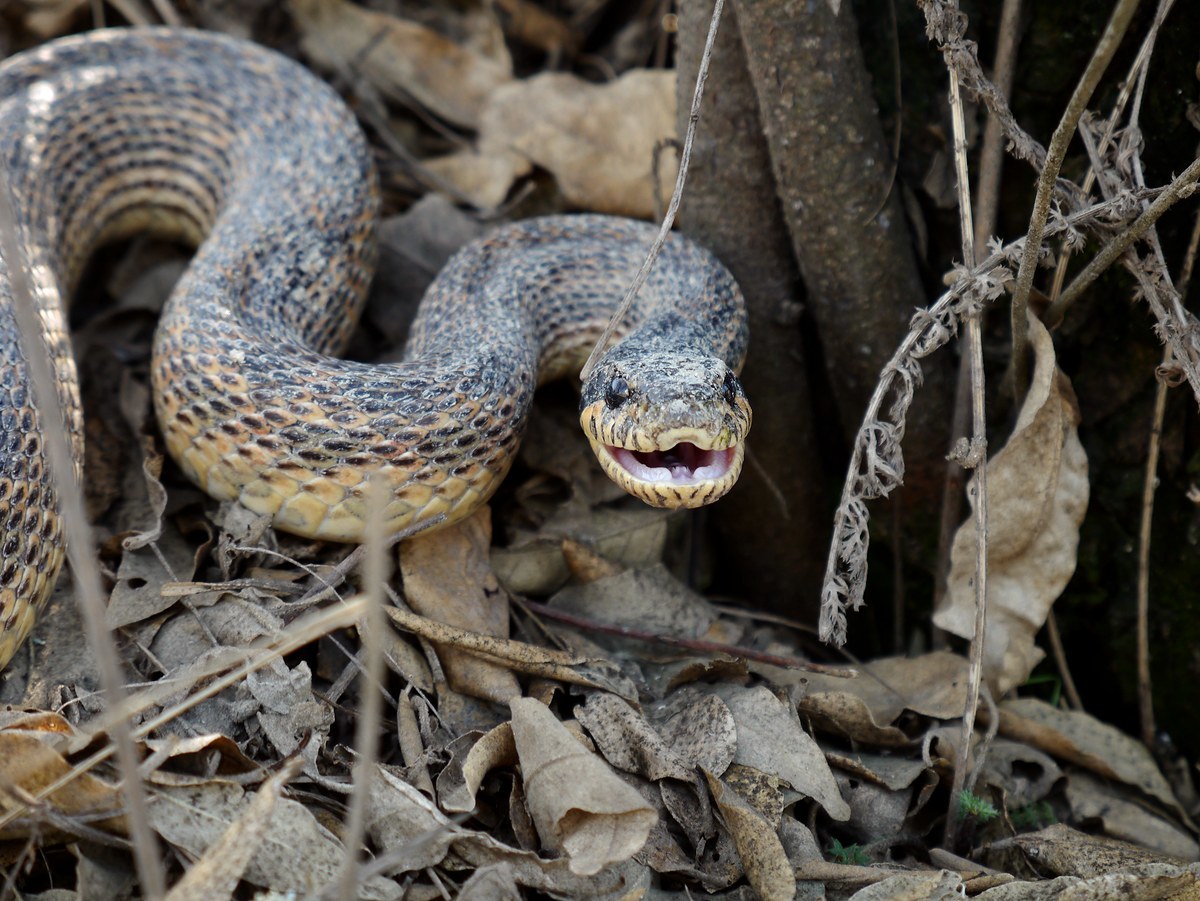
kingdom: Animalia
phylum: Chordata
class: Squamata
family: Colubridae
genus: Elaphe
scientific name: Elaphe sauromates
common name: Eastern four-lined ratsnake
